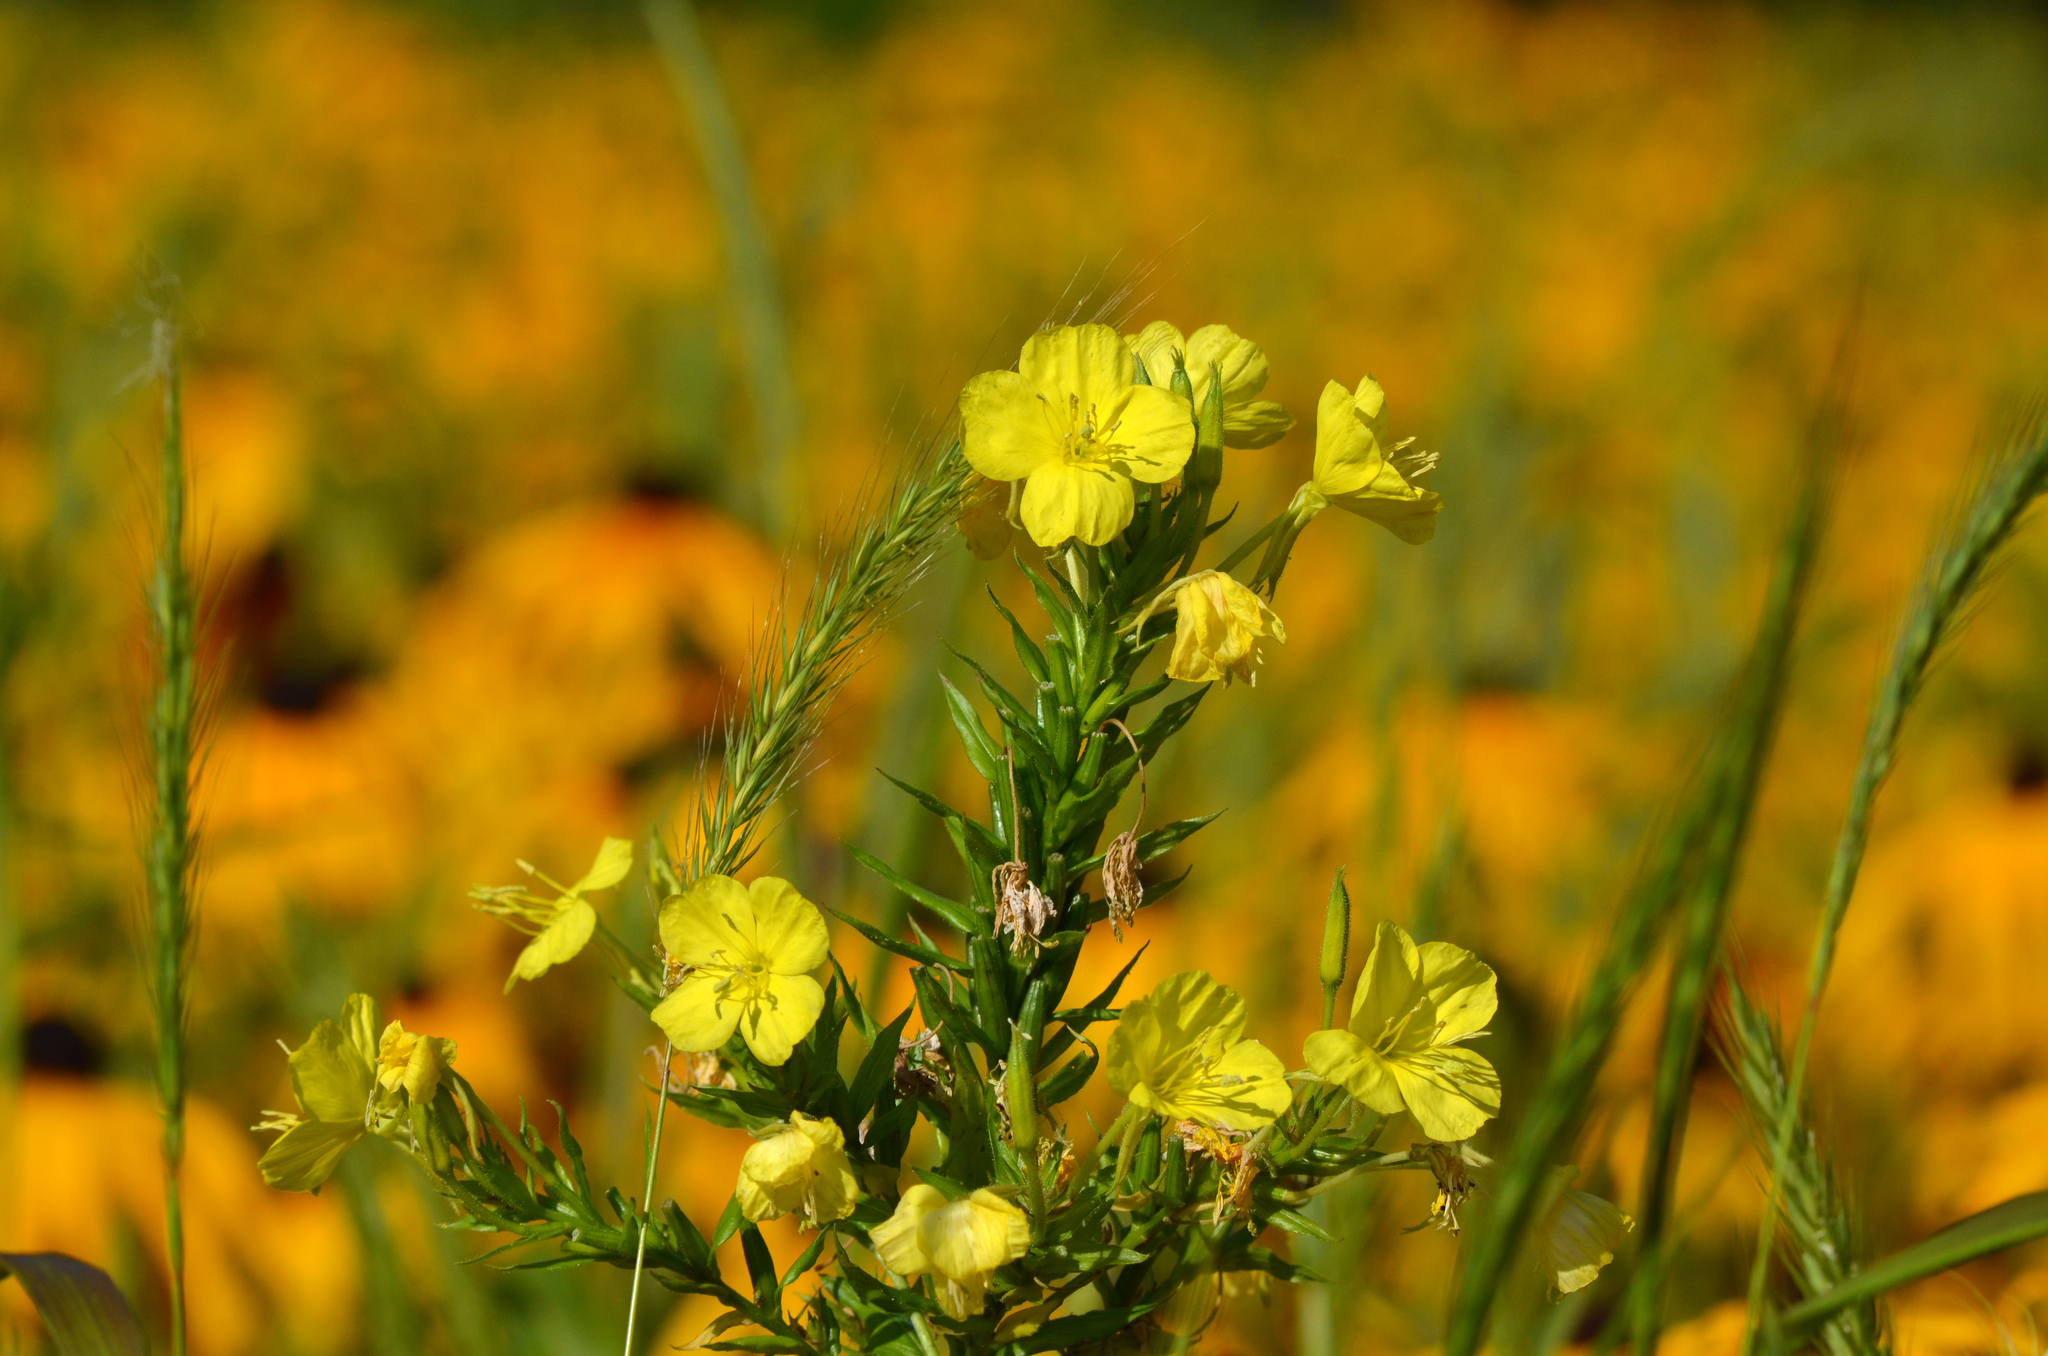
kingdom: Plantae
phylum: Tracheophyta
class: Magnoliopsida
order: Myrtales
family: Onagraceae
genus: Oenothera
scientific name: Oenothera biennis
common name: Common evening-primrose
